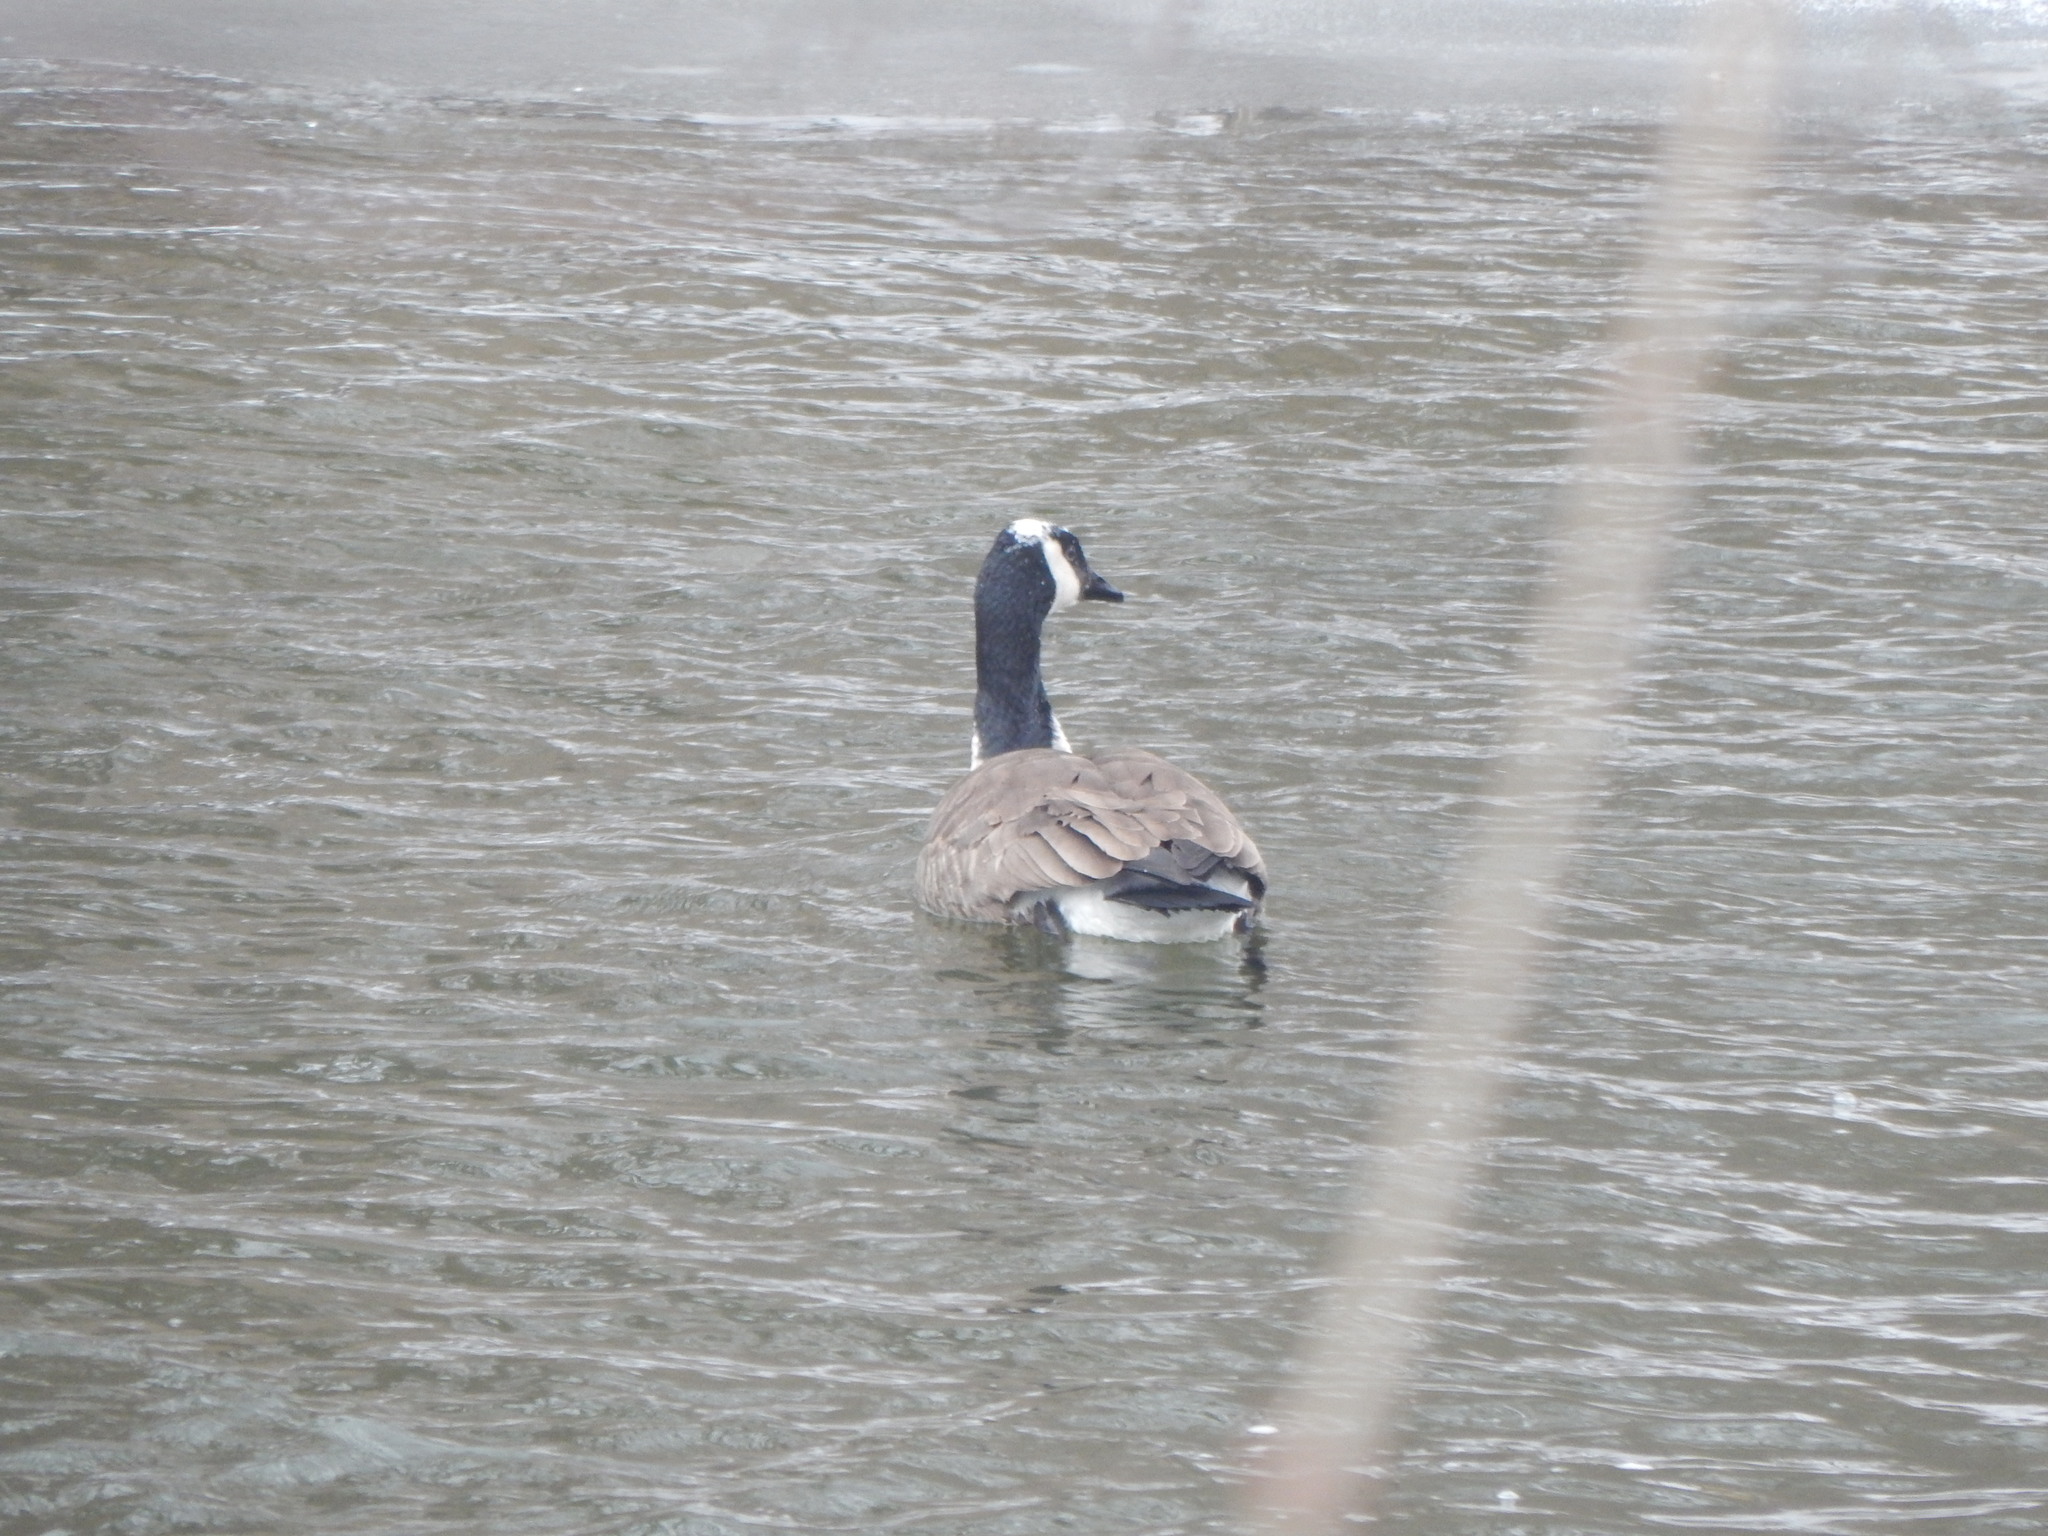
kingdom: Animalia
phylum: Chordata
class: Aves
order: Anseriformes
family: Anatidae
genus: Branta
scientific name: Branta canadensis
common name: Canada goose
